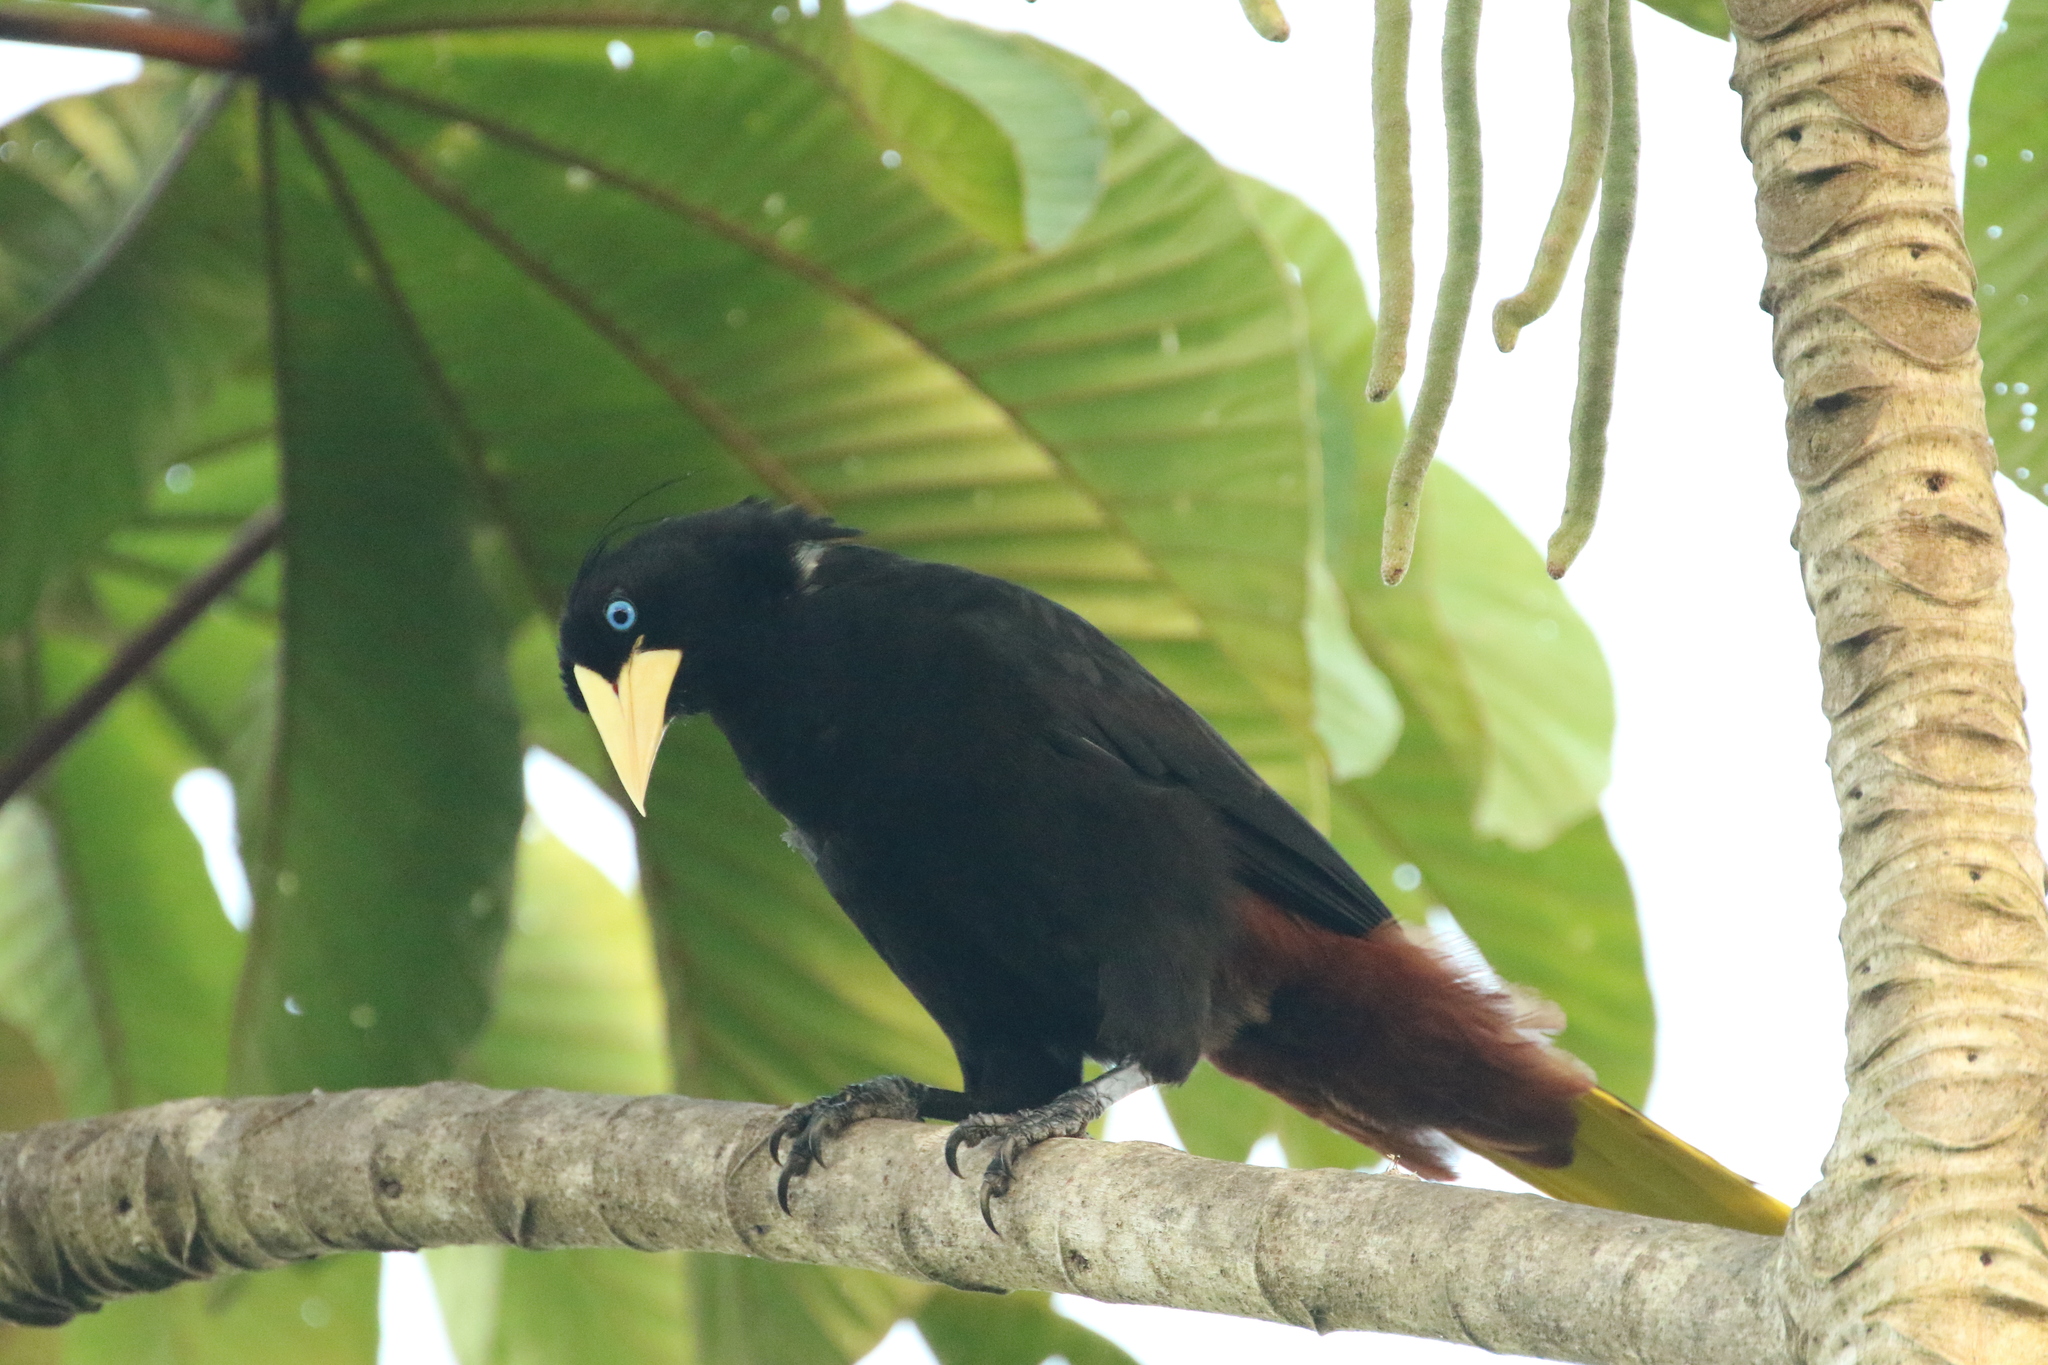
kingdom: Animalia
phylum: Chordata
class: Aves
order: Passeriformes
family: Icteridae
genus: Psarocolius
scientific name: Psarocolius wagleri
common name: Chestnut-headed oropendola
